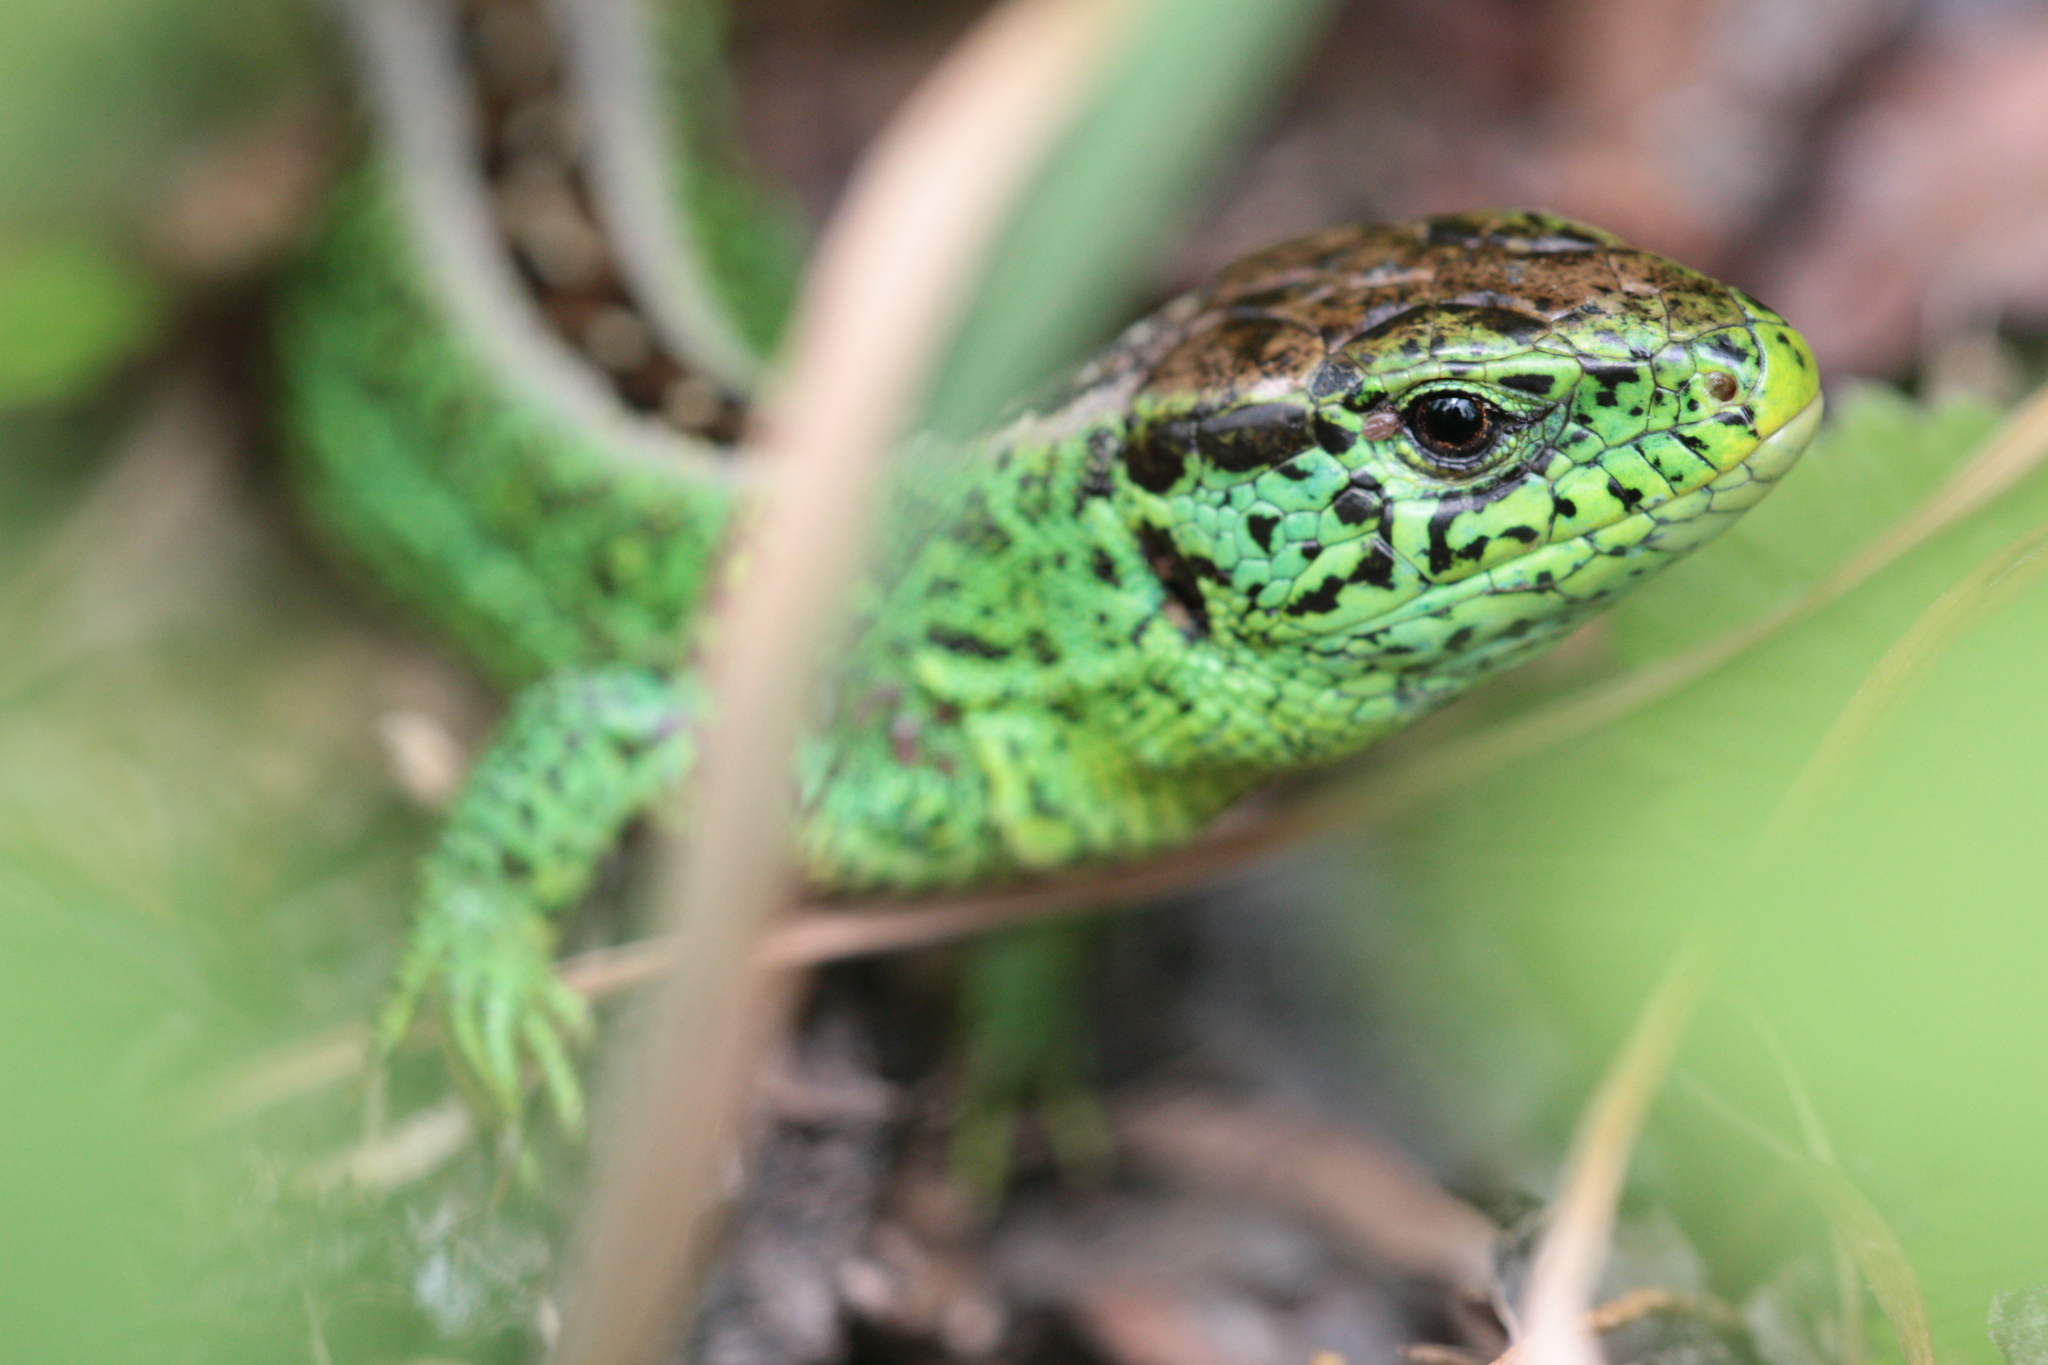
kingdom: Animalia
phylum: Chordata
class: Squamata
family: Lacertidae
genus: Lacerta
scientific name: Lacerta agilis
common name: Sand lizard
